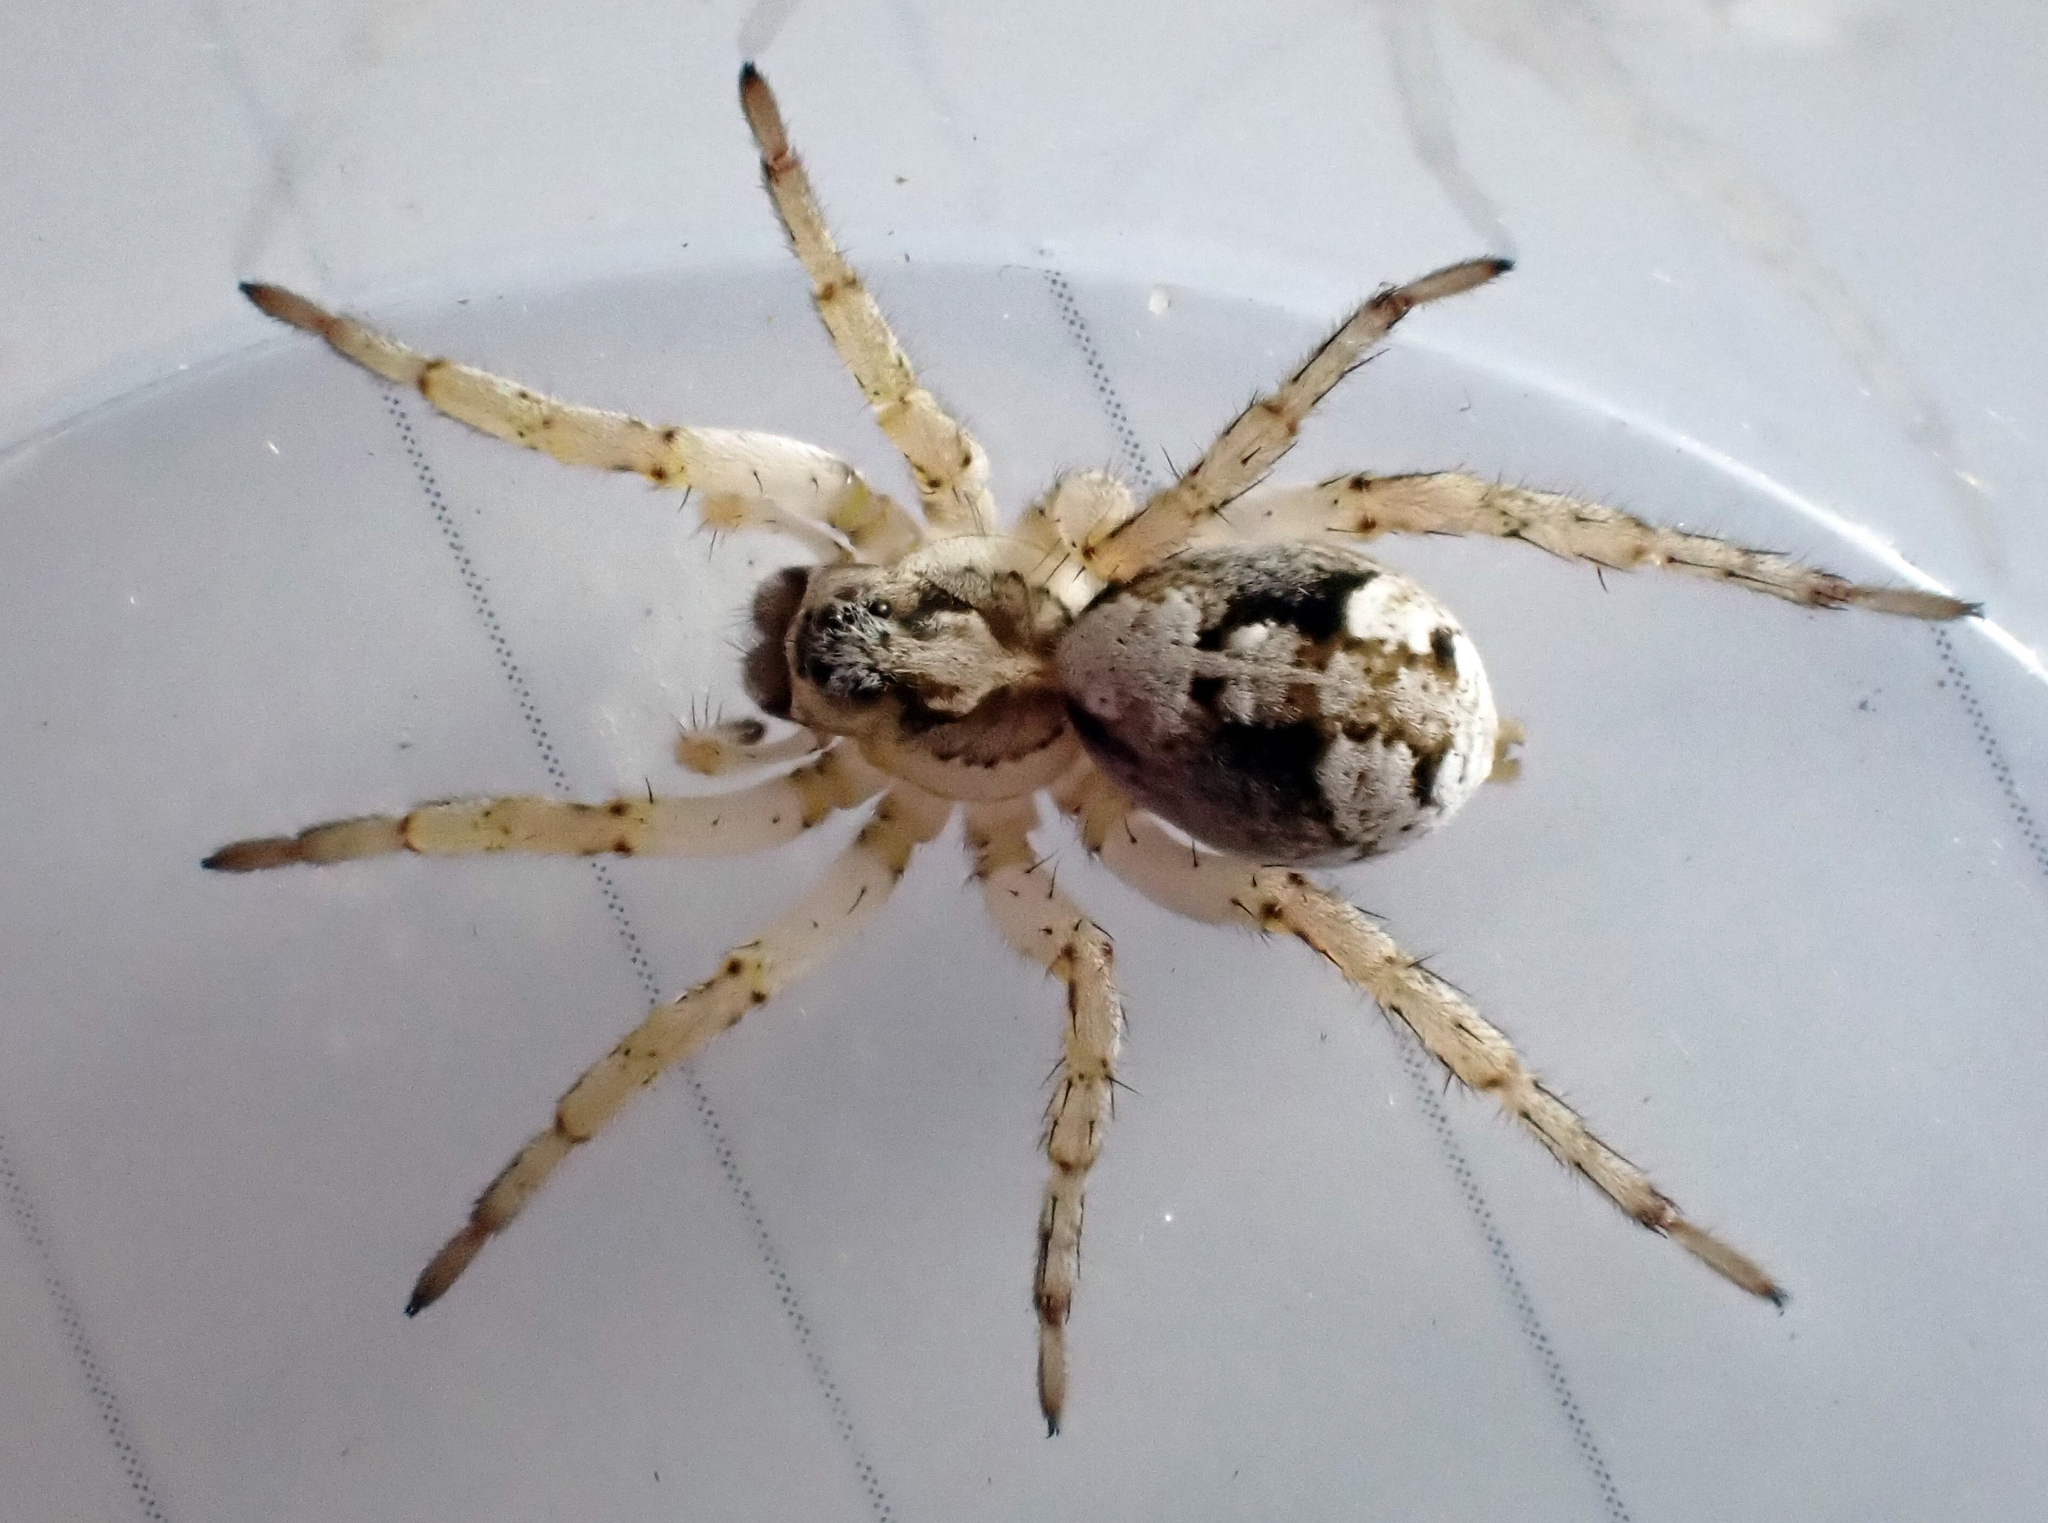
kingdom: Animalia
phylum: Arthropoda
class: Arachnida
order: Araneae
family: Lycosidae
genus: Anoteropsis
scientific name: Anoteropsis insularis
